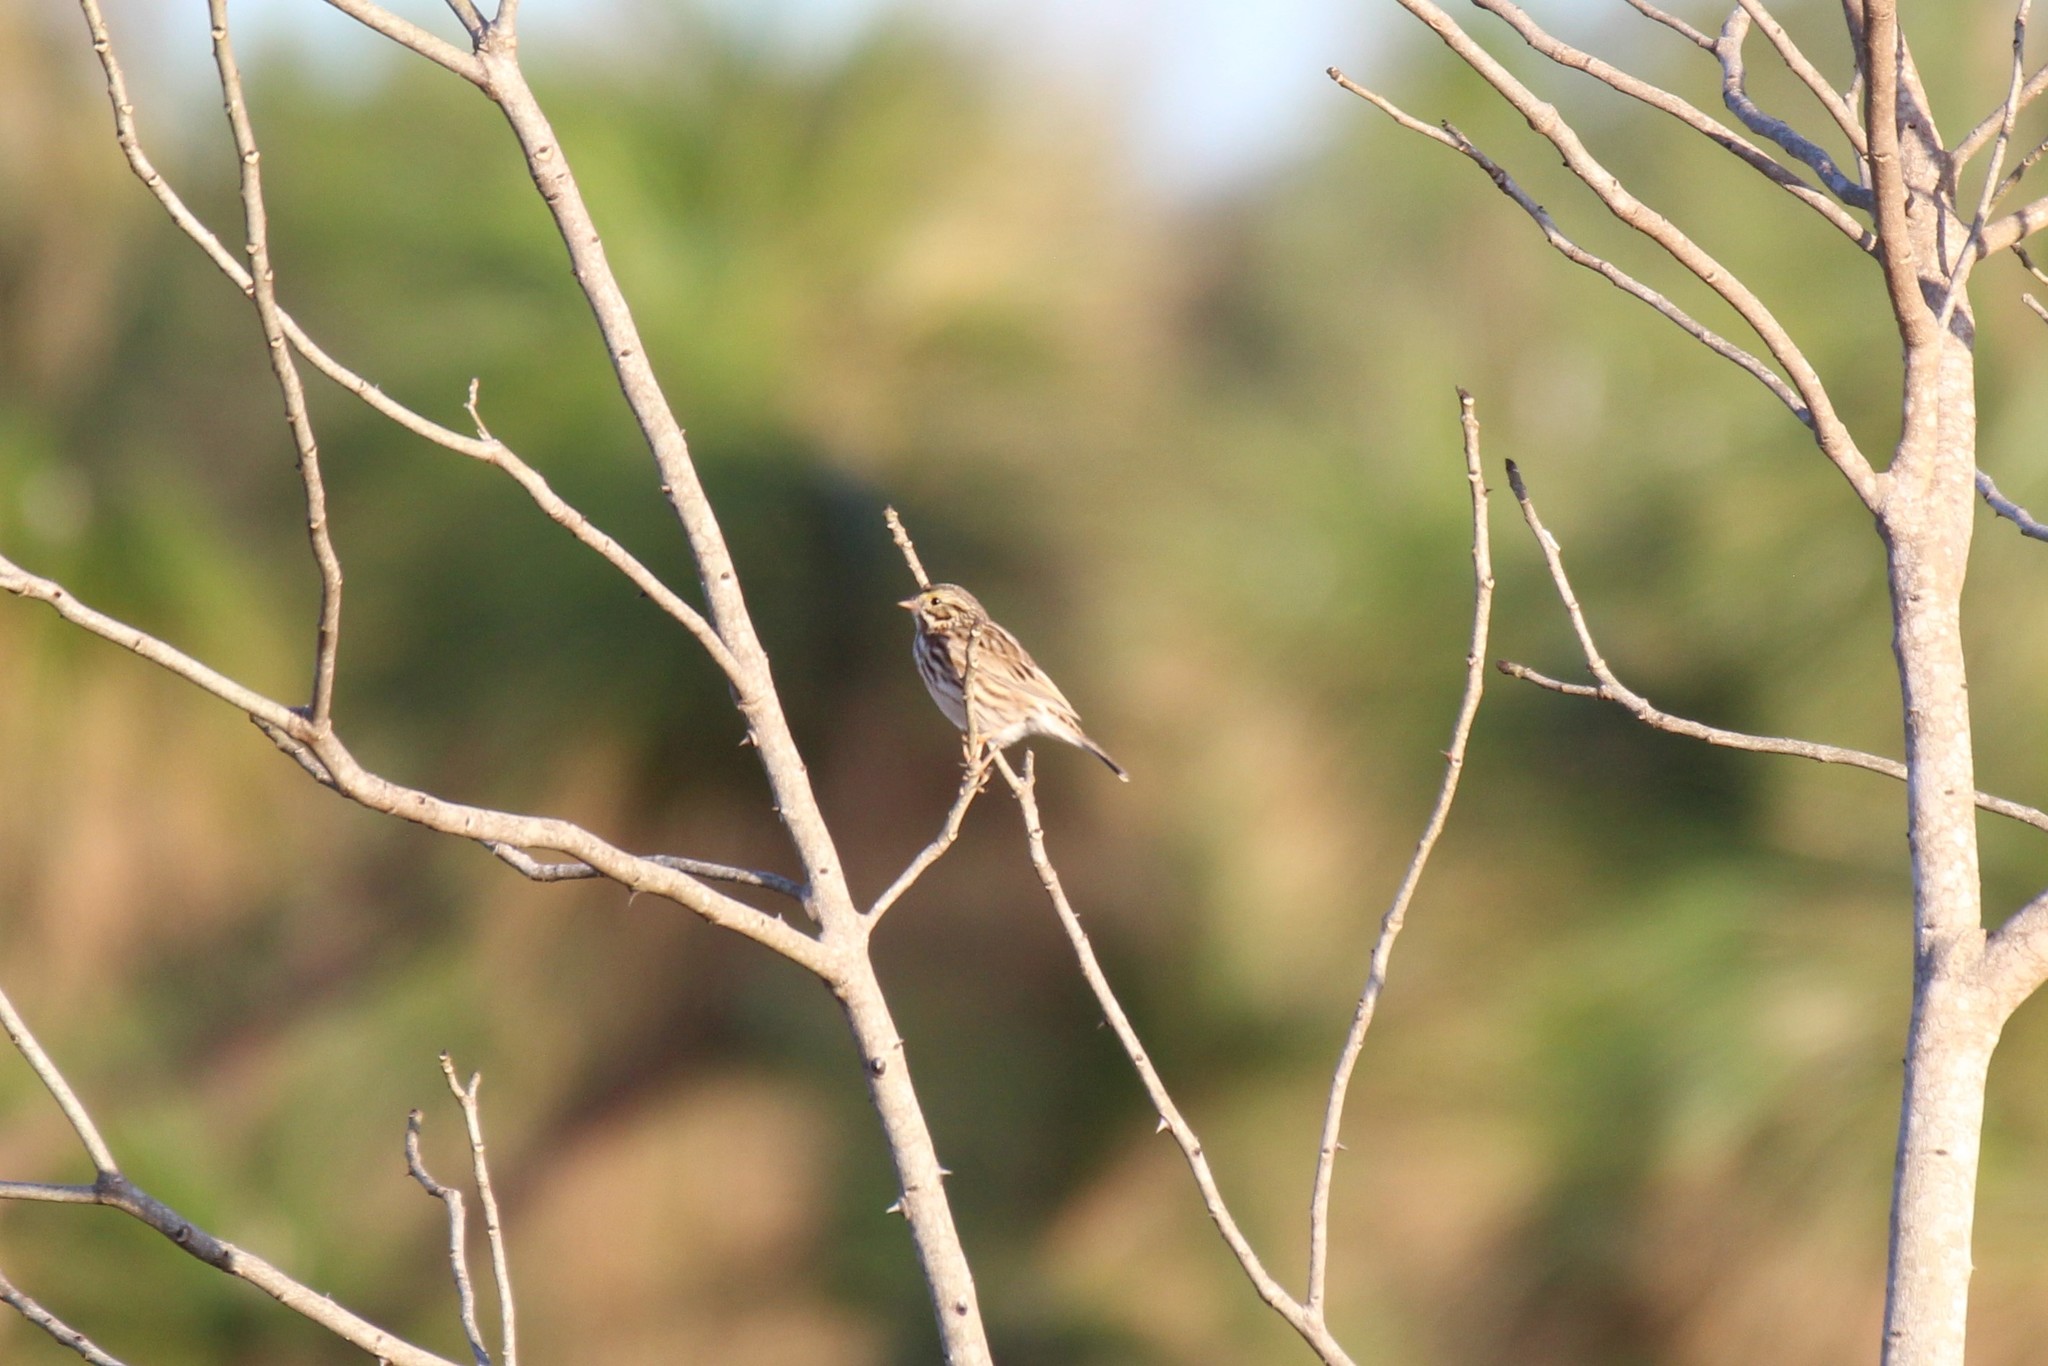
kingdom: Animalia
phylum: Chordata
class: Aves
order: Passeriformes
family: Passerellidae
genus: Passerculus
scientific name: Passerculus sandwichensis
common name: Savannah sparrow
